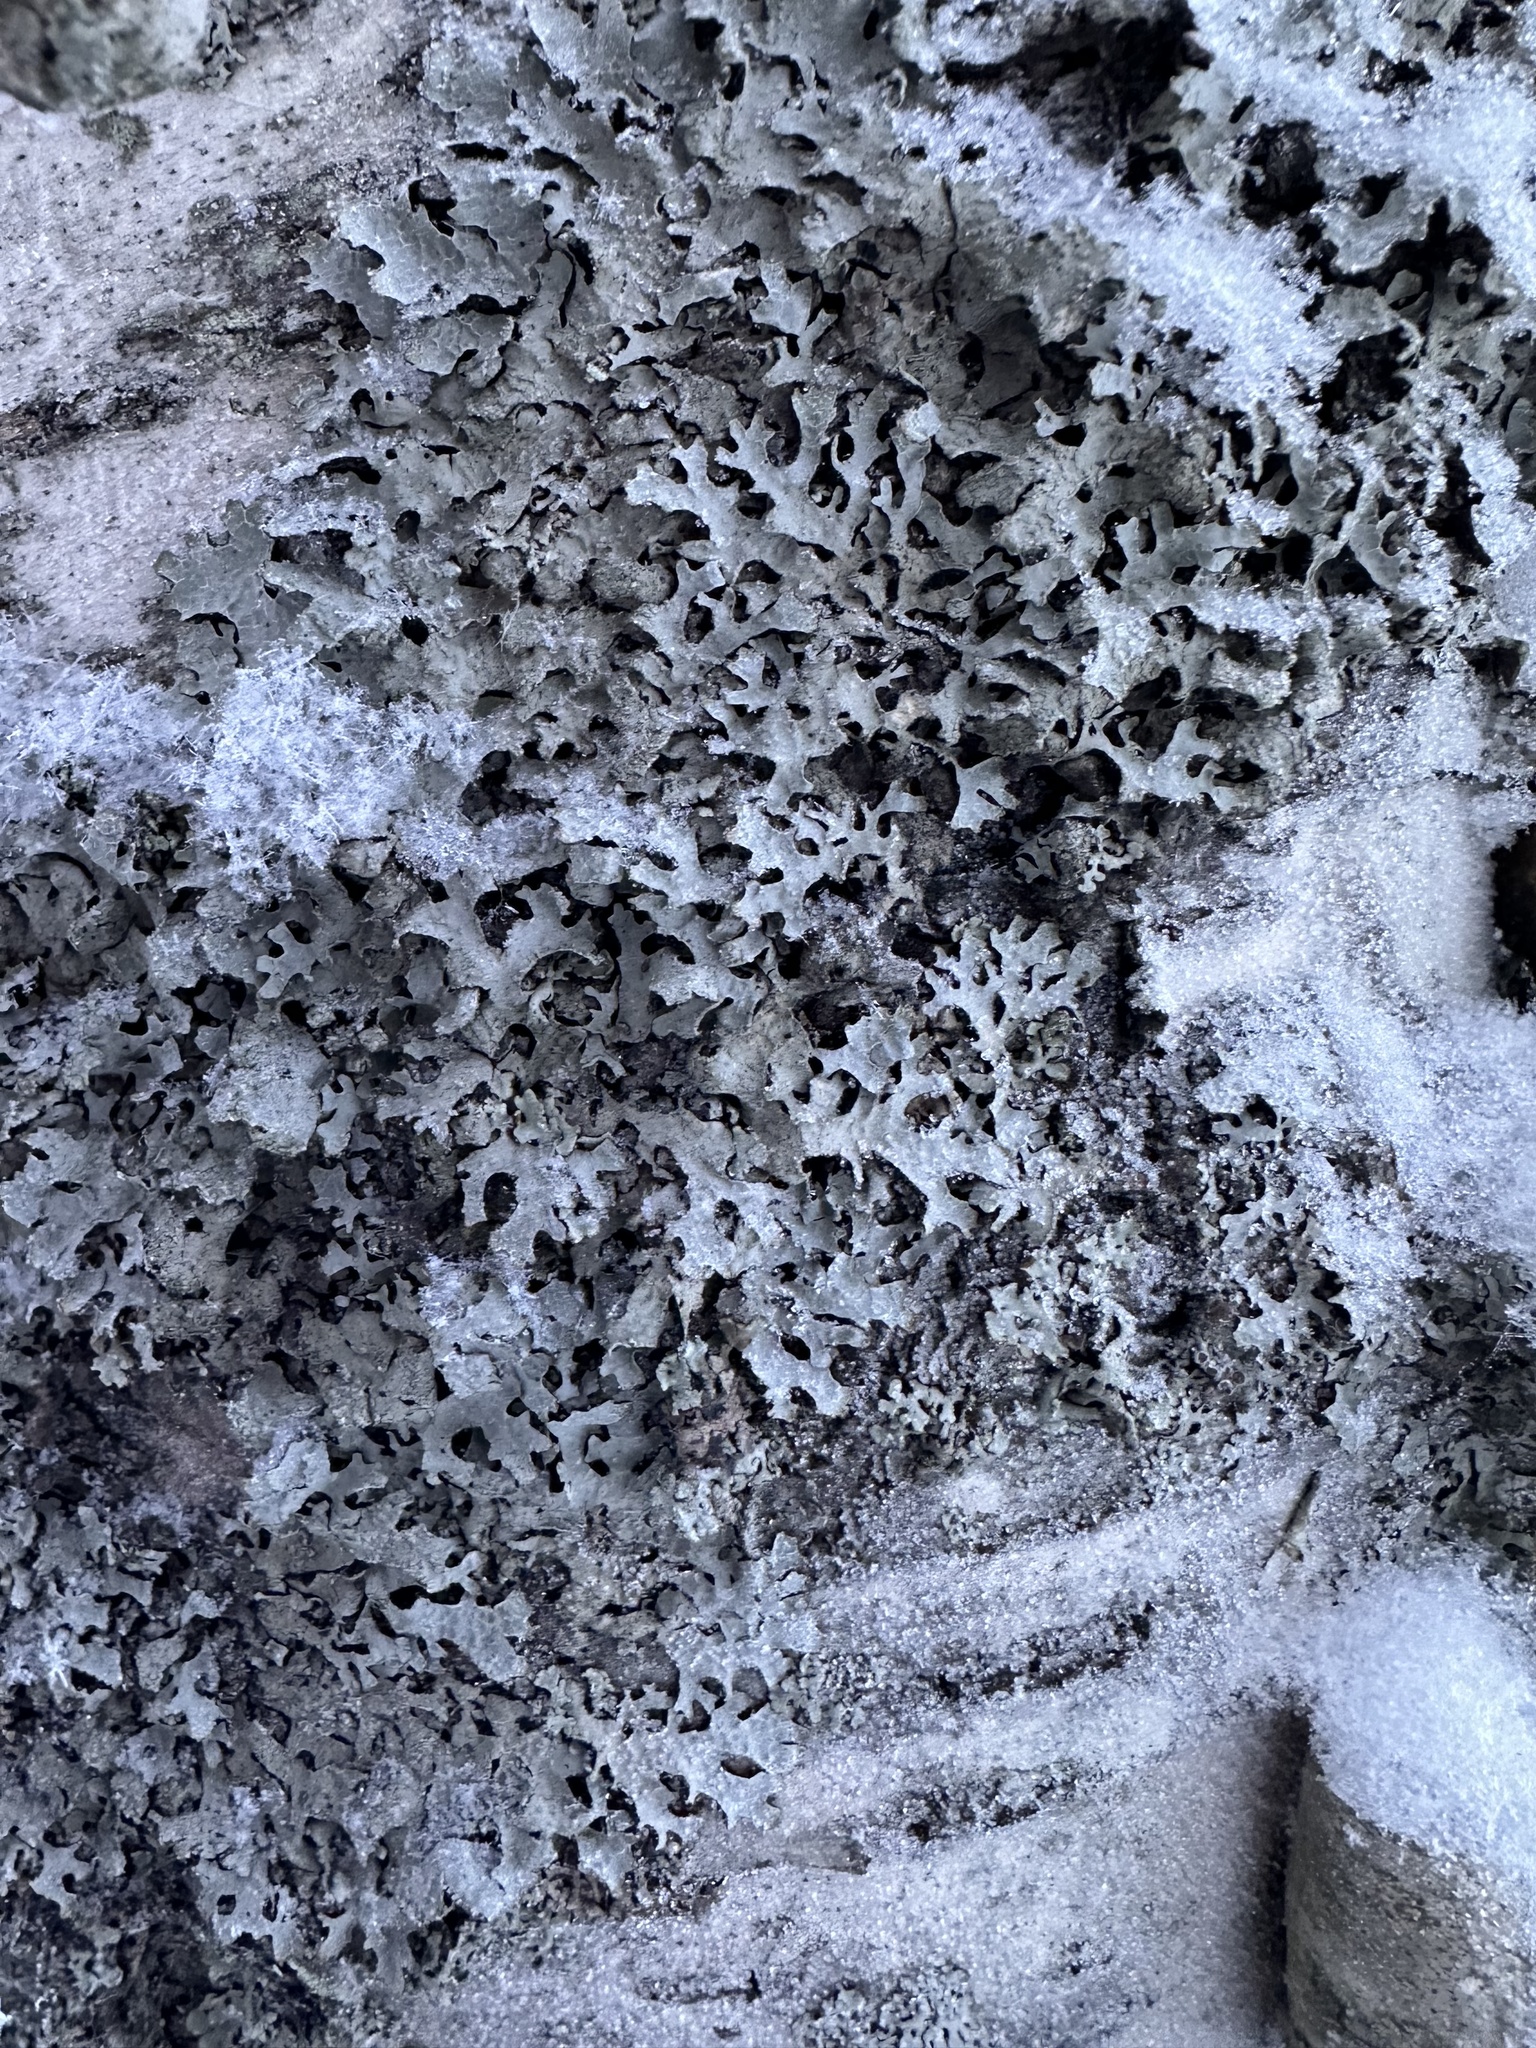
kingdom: Fungi
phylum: Ascomycota
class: Lecanoromycetes
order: Lecanorales
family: Parmeliaceae
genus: Parmelia
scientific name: Parmelia sulcata
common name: Netted shield lichen
